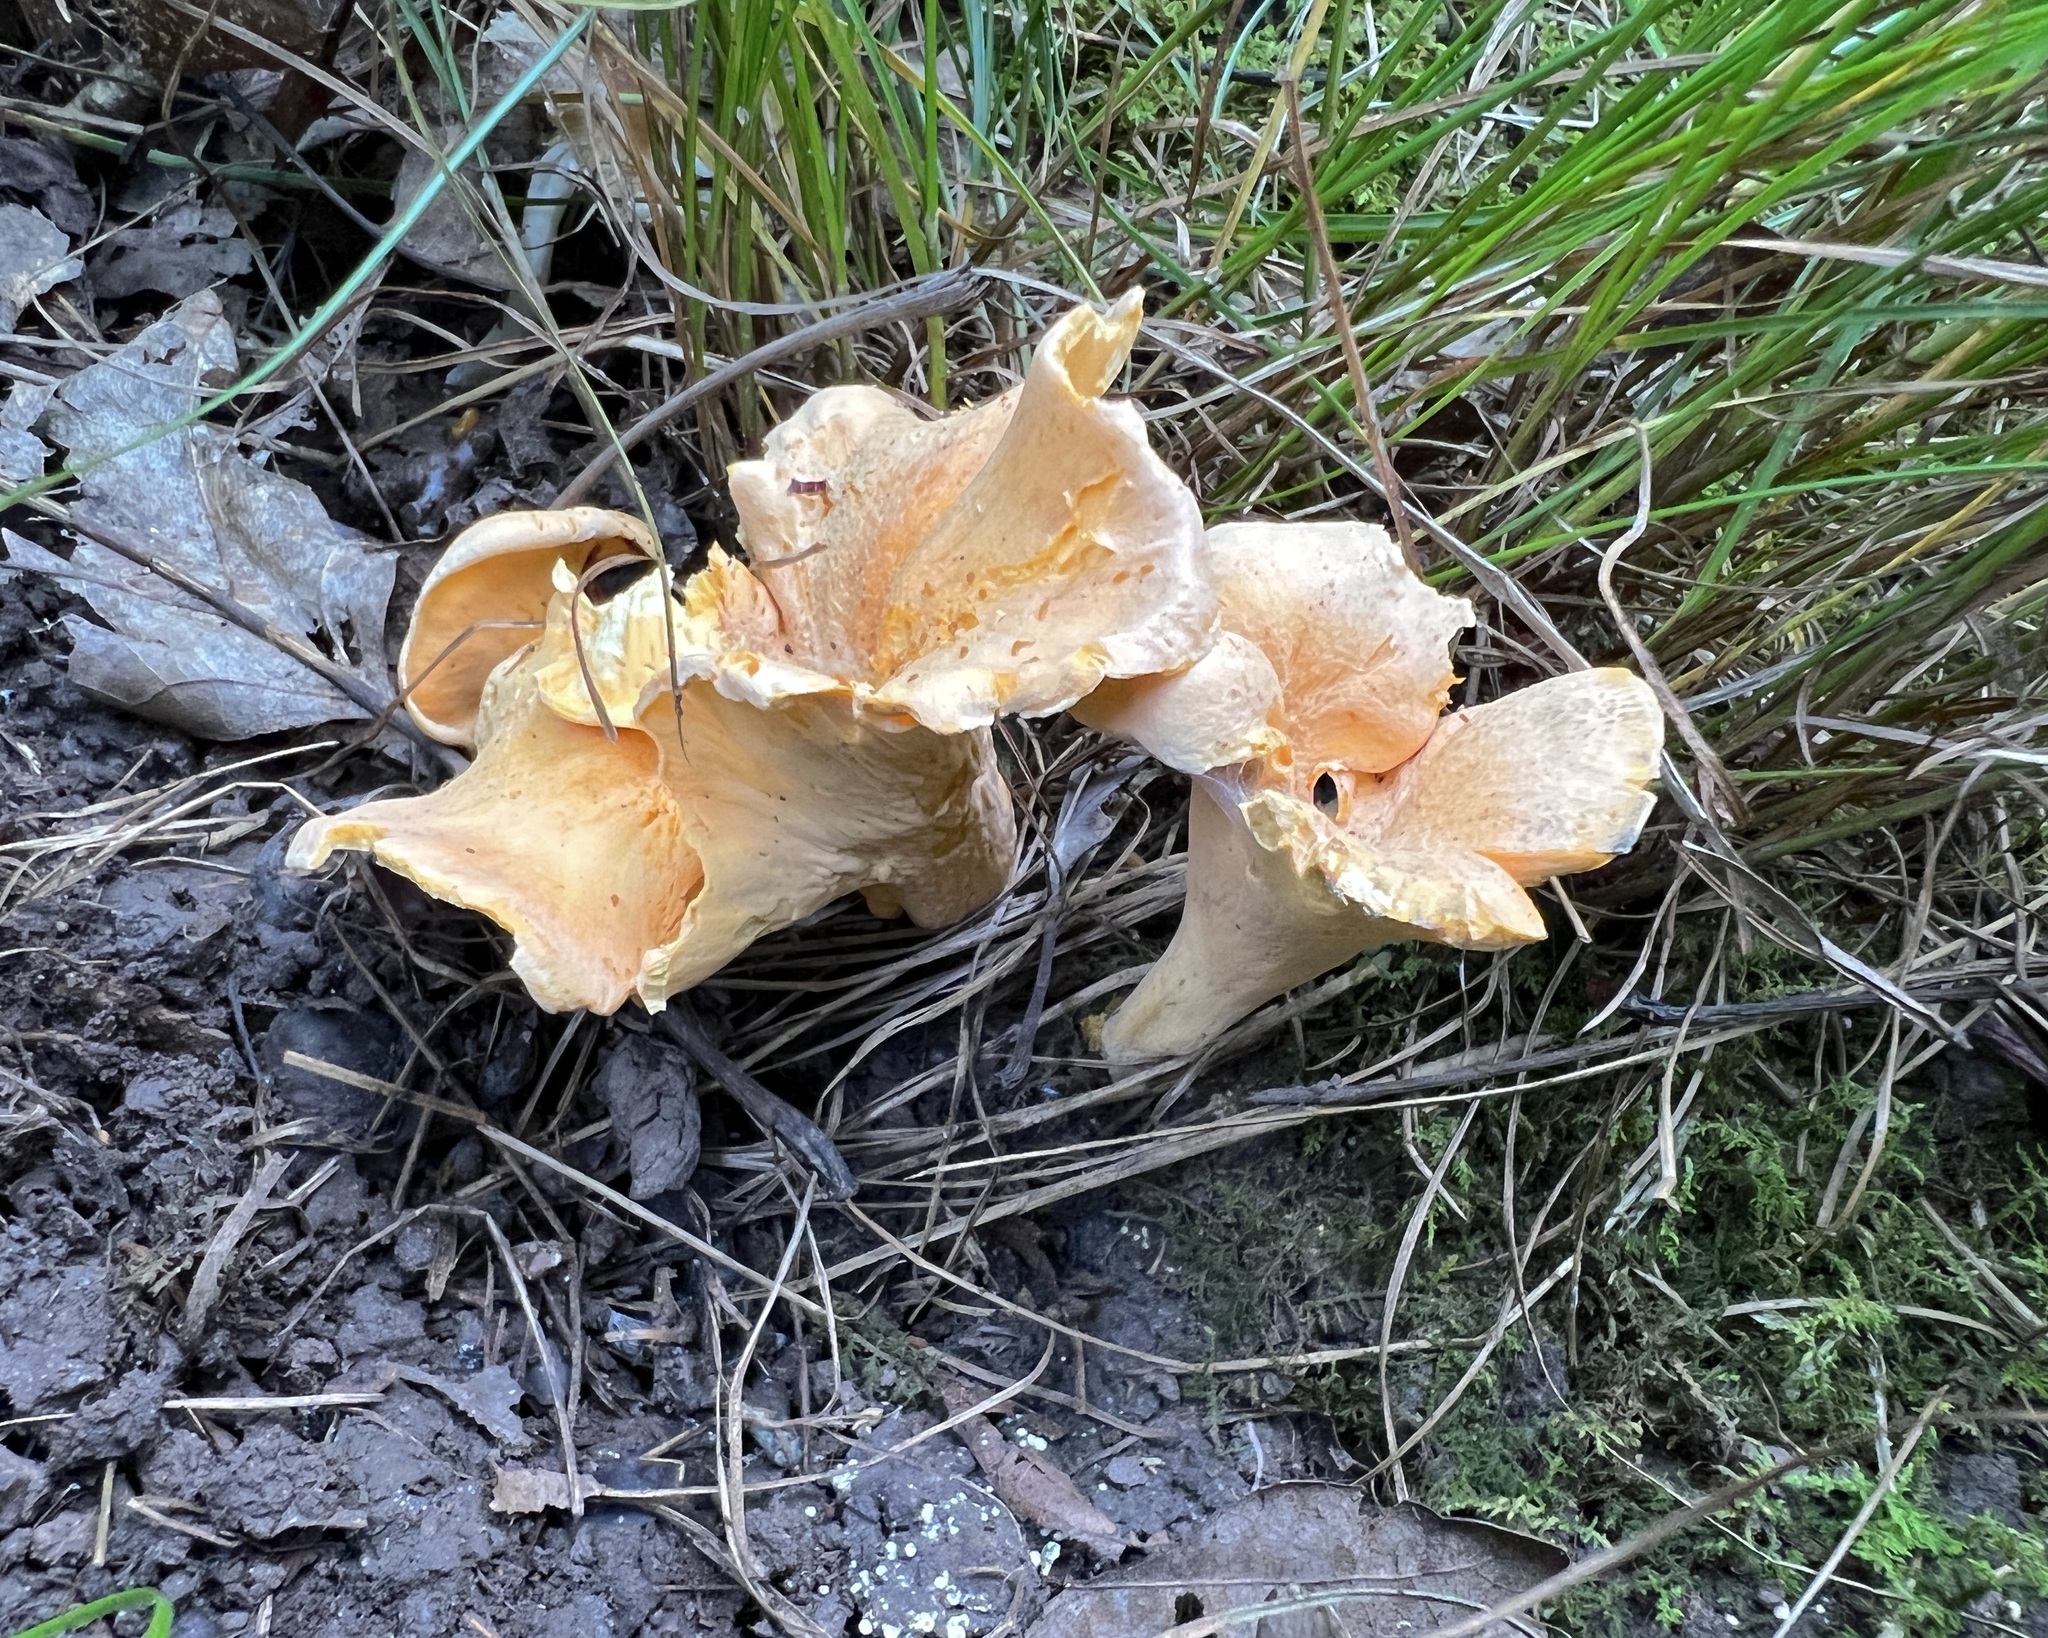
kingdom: Fungi
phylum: Basidiomycota
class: Agaricomycetes
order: Cantharellales
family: Hydnaceae
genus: Cantharellus
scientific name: Cantharellus lateritius
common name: Smooth chanterelle
